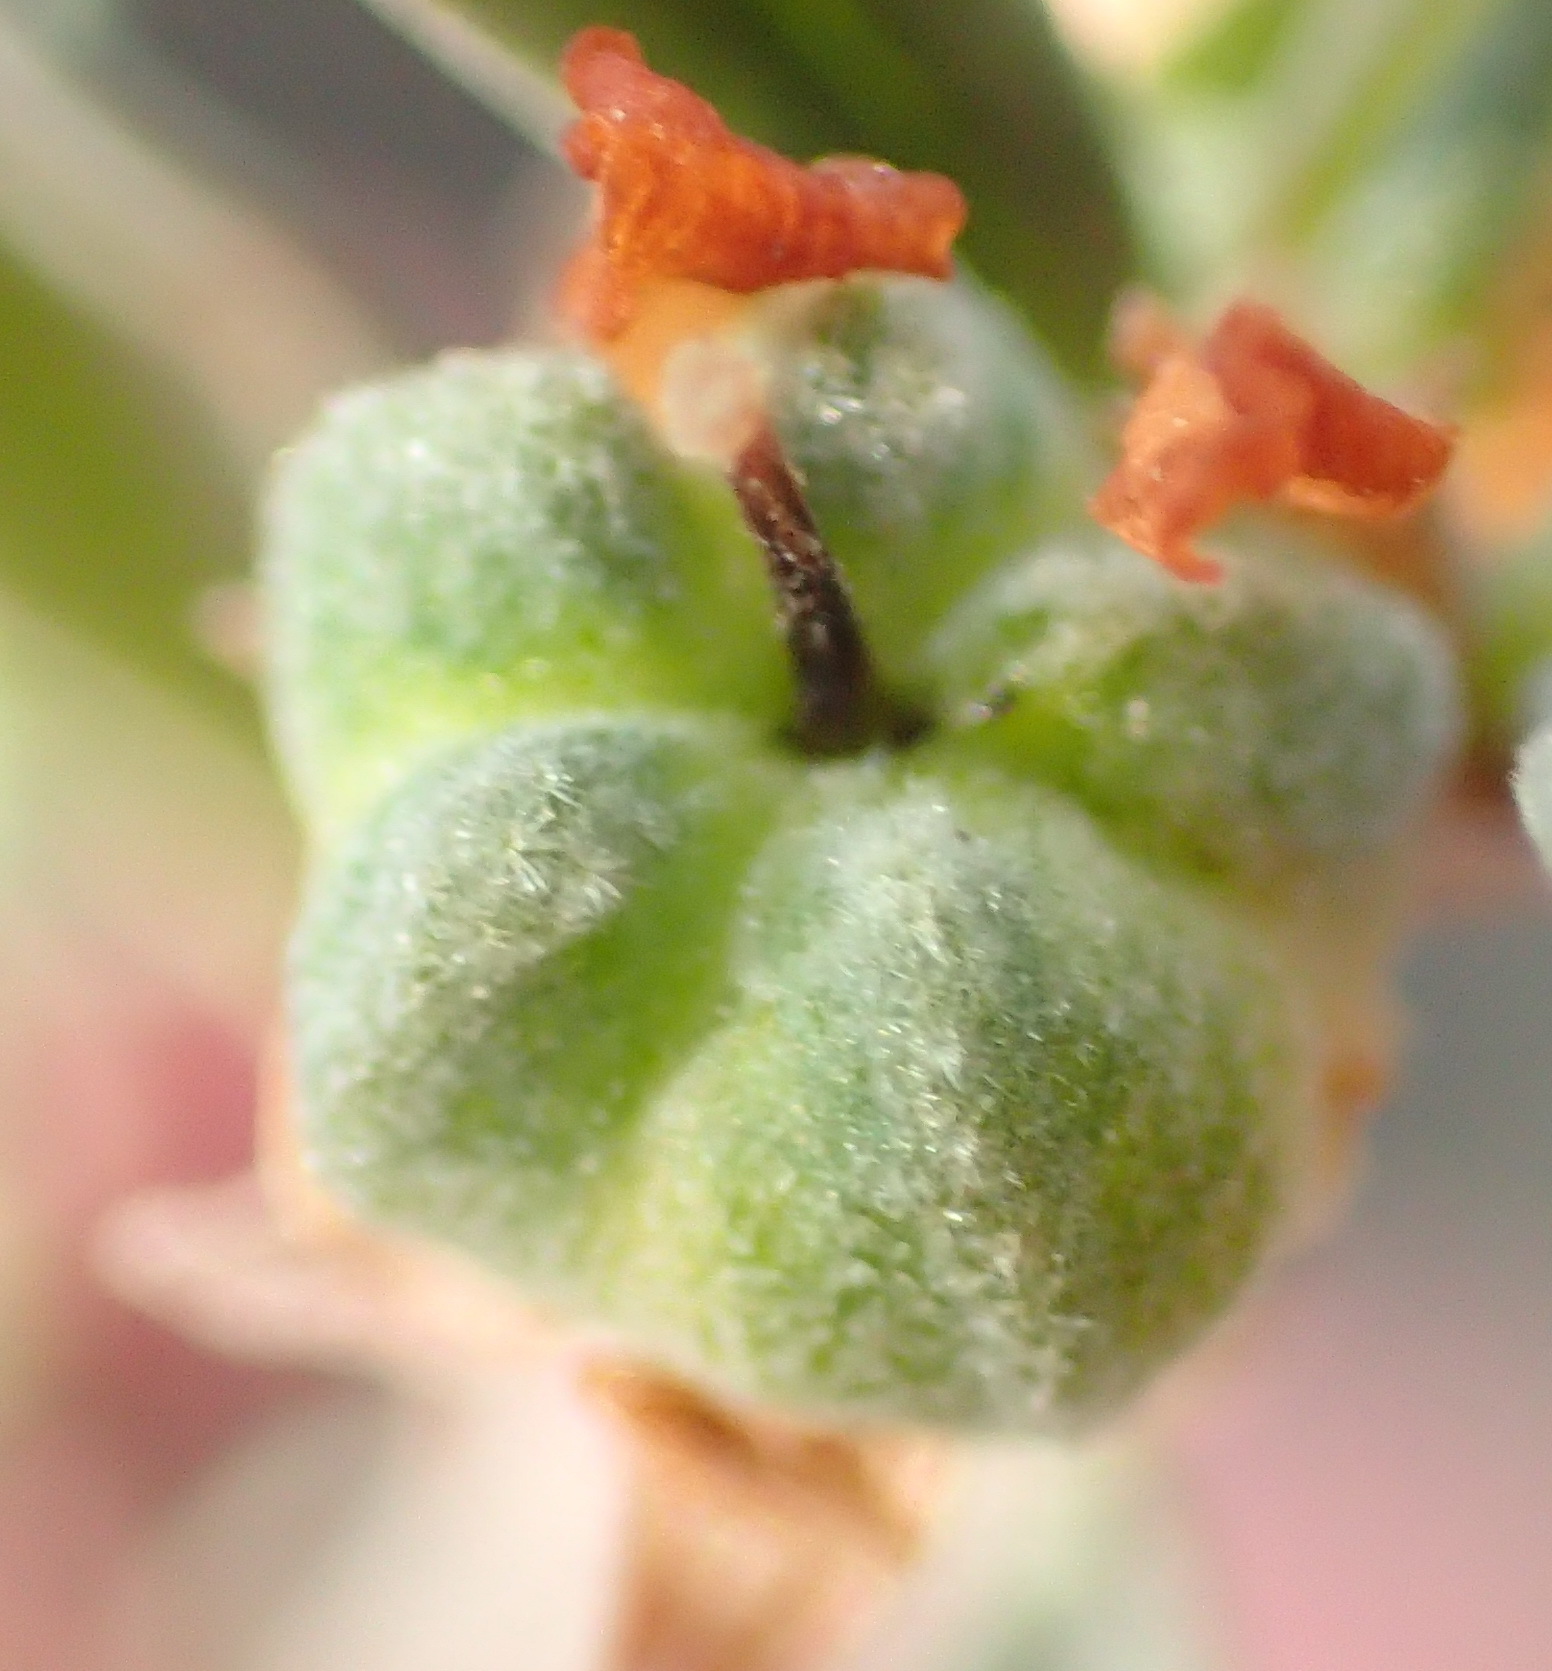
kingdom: Plantae
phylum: Tracheophyta
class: Magnoliopsida
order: Malvales
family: Malvaceae
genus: Hermannia
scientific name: Hermannia diversistipula
